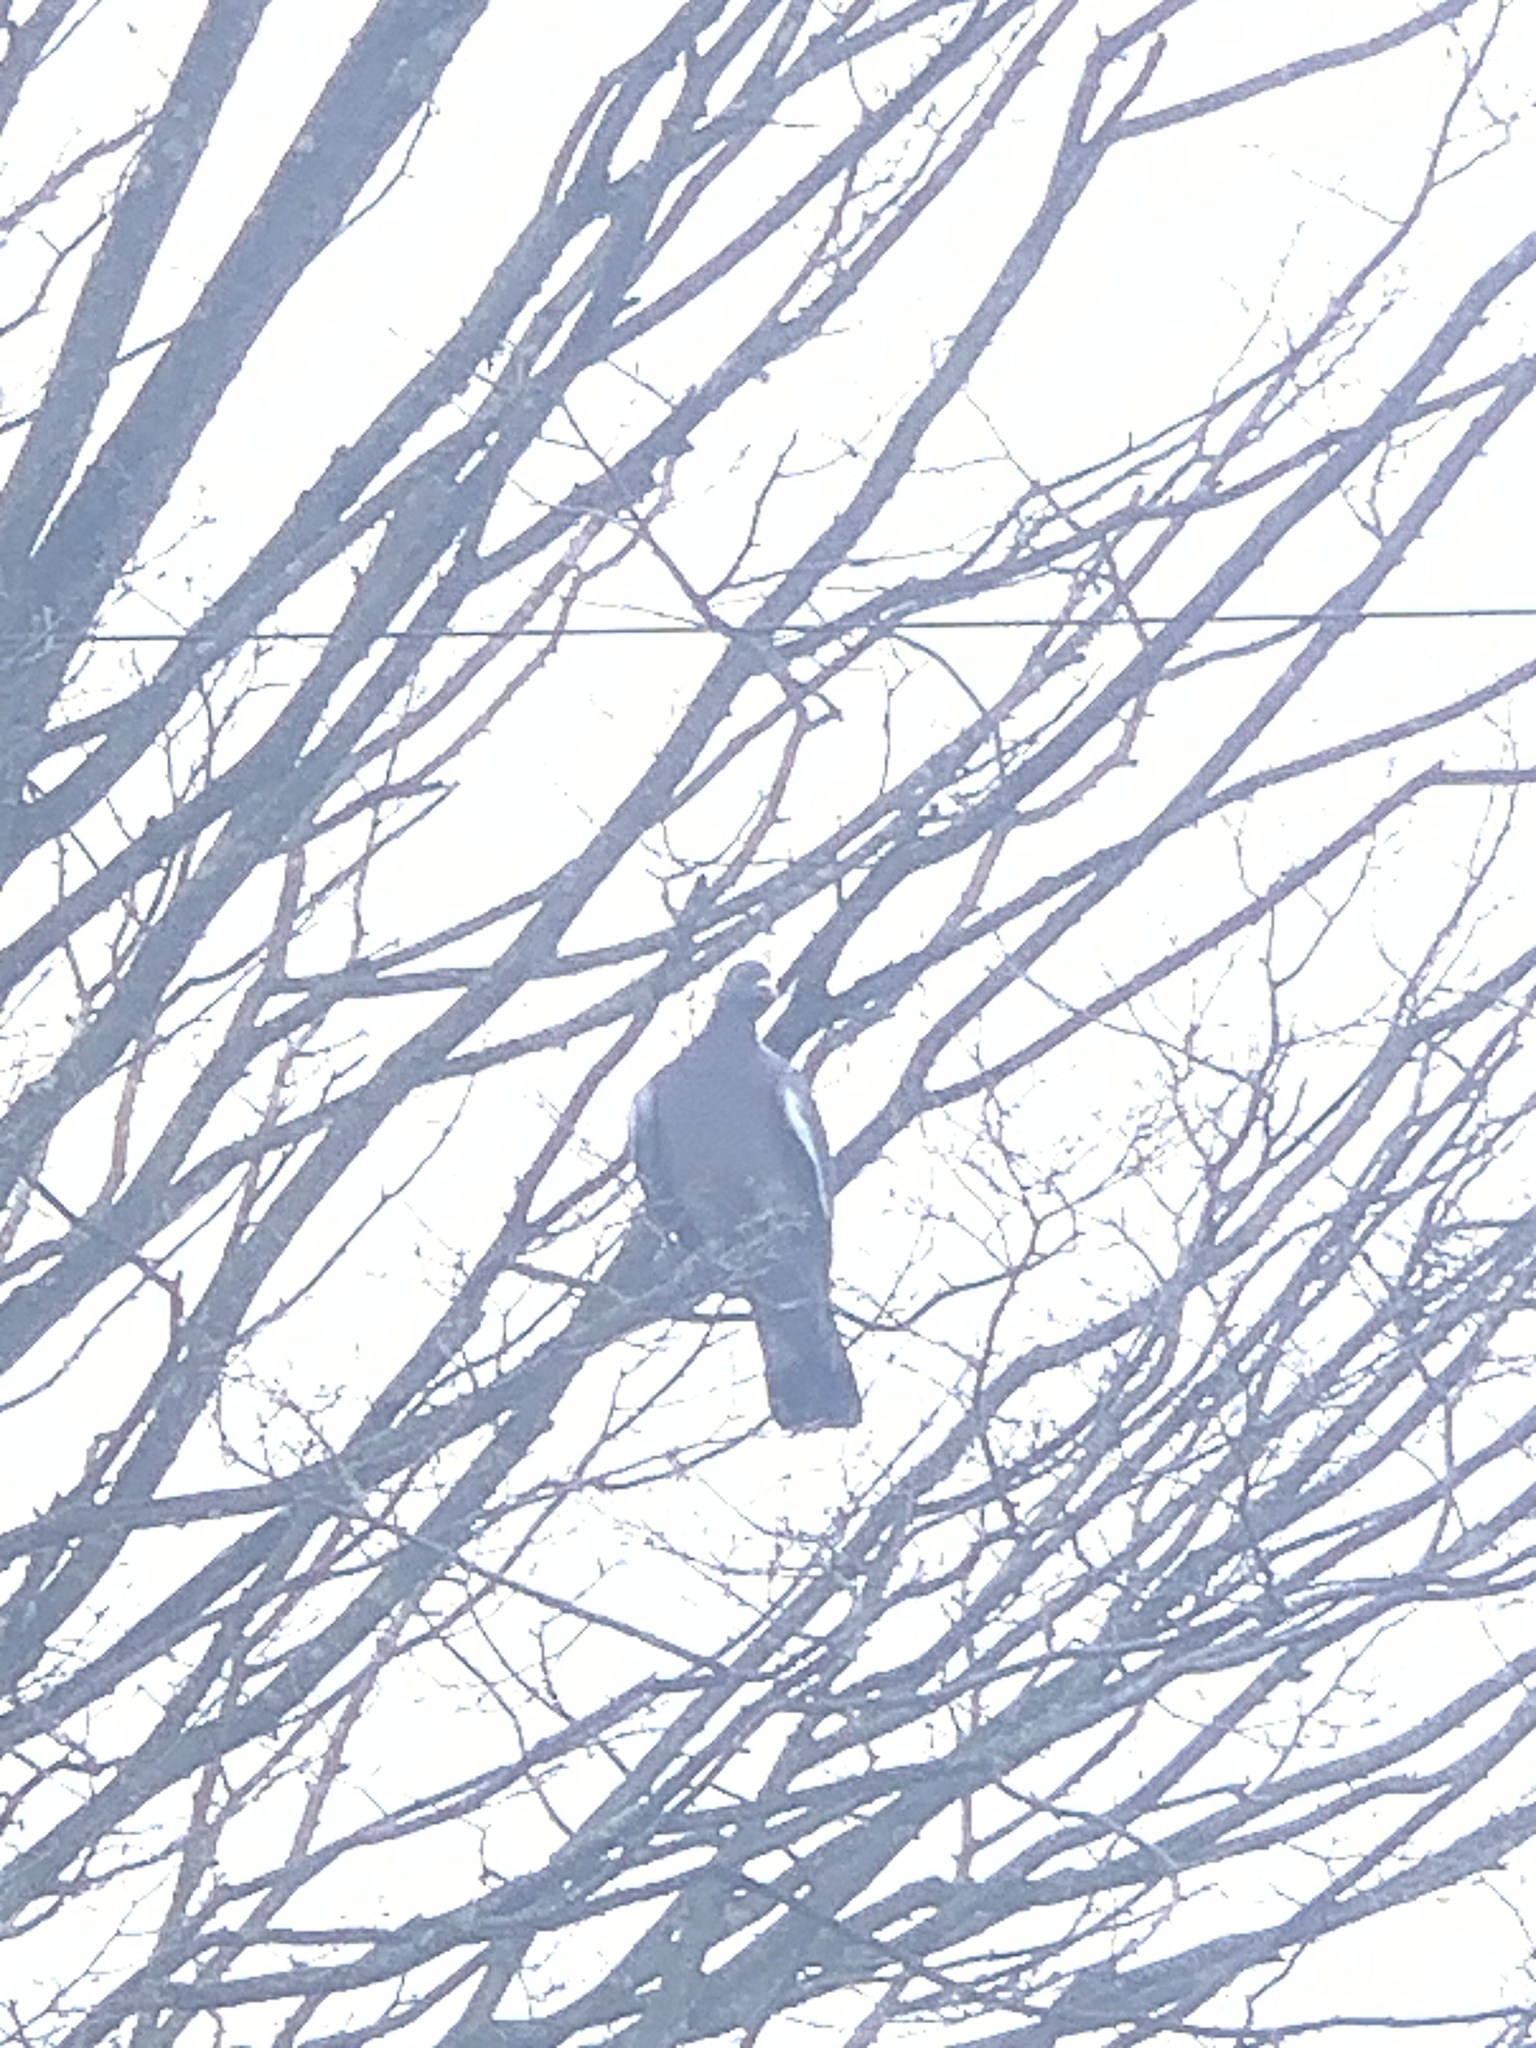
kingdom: Animalia
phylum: Chordata
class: Aves
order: Columbiformes
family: Columbidae
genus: Columba
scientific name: Columba palumbus
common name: Common wood pigeon
